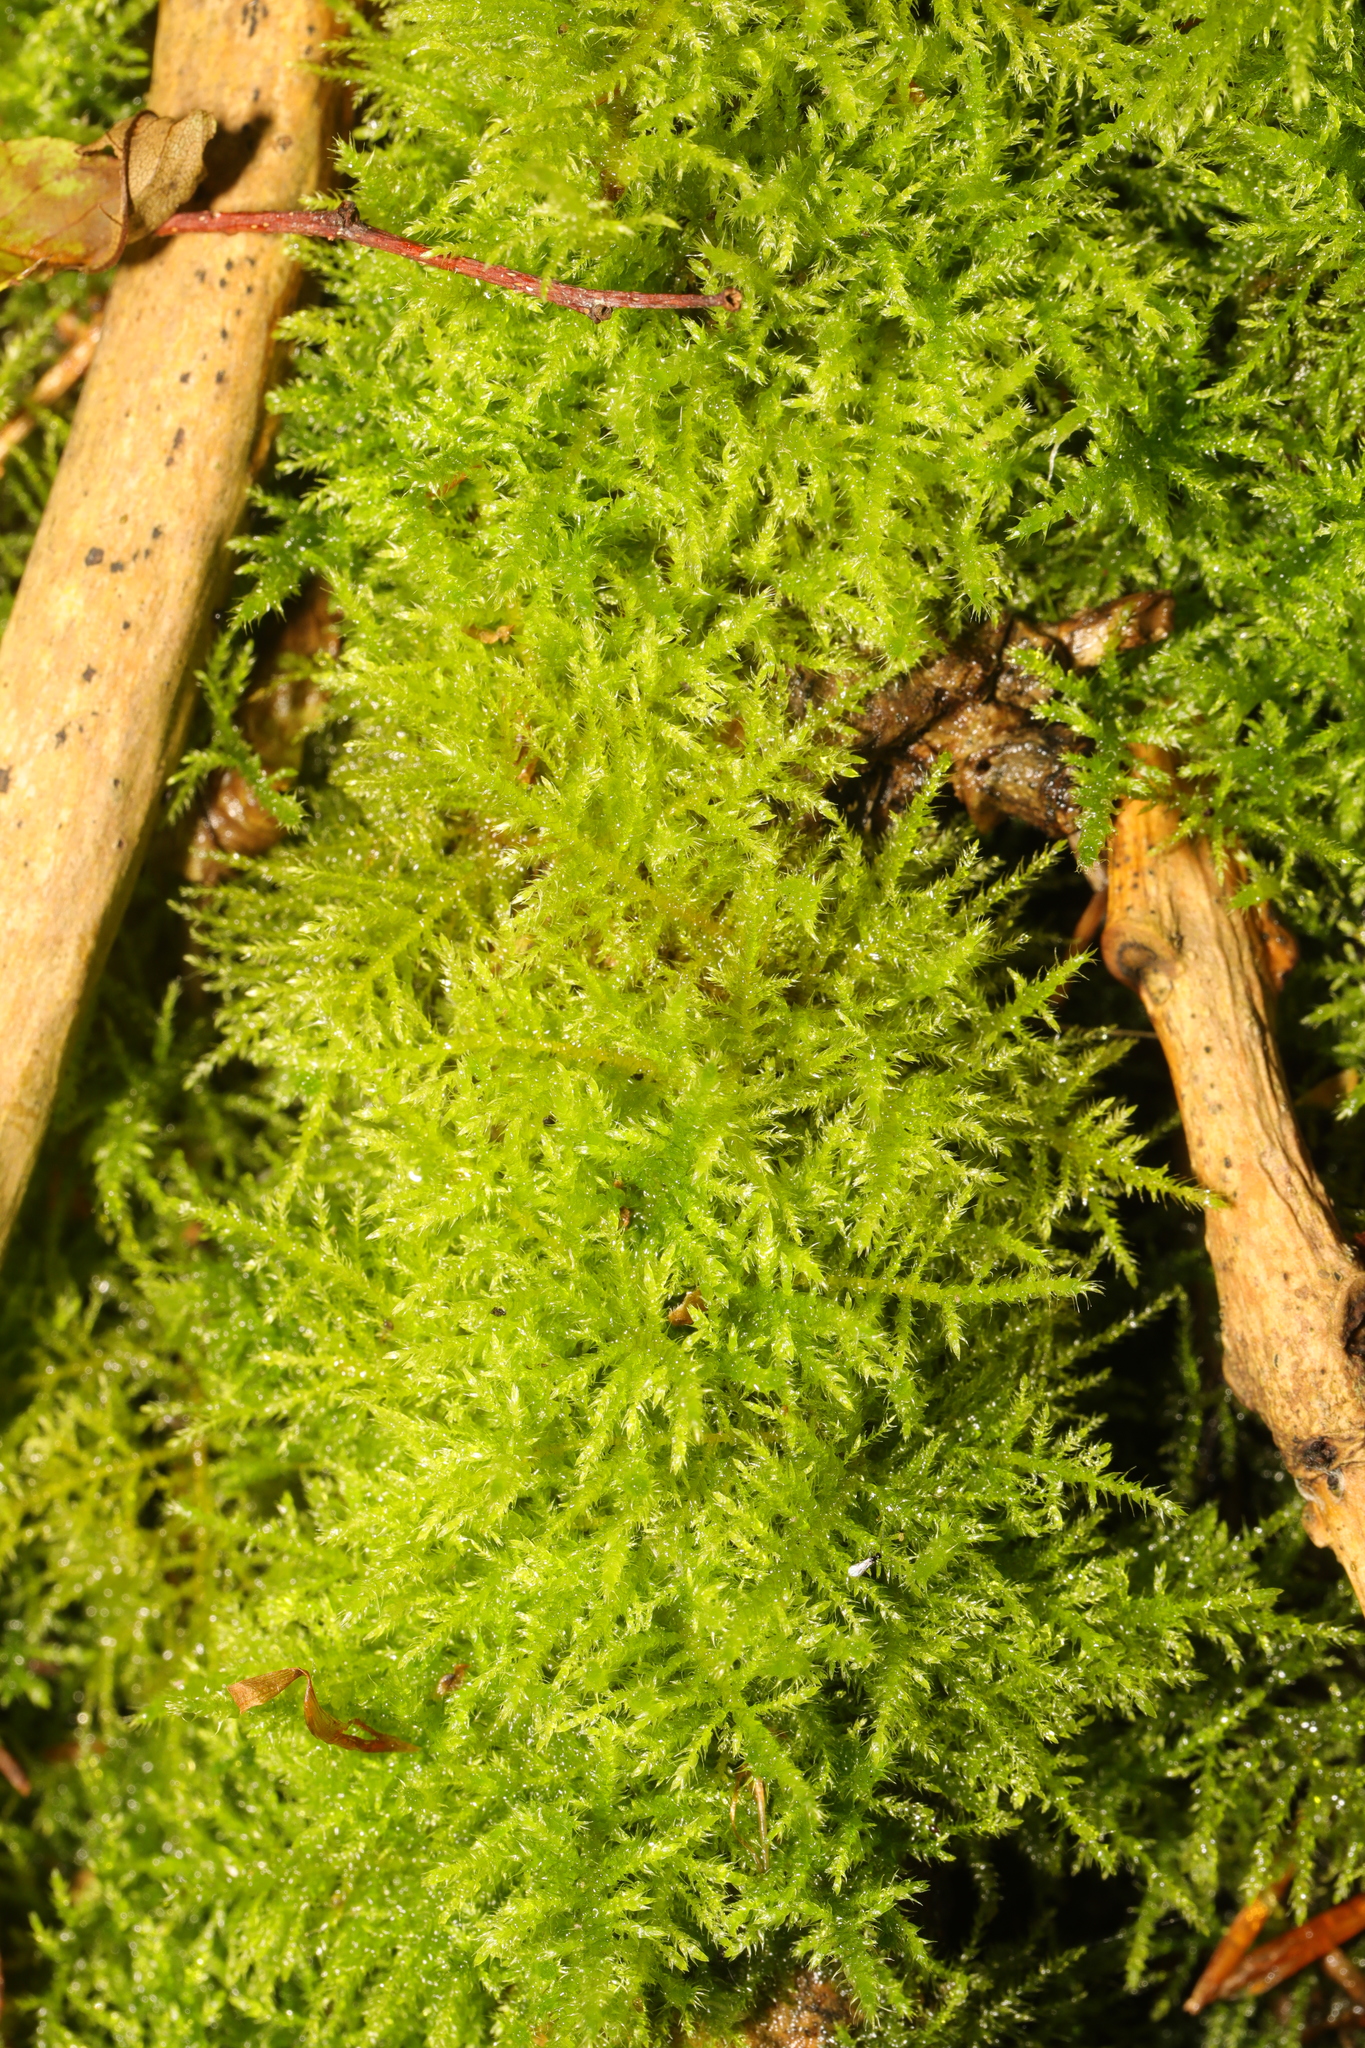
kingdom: Plantae
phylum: Bryophyta
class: Bryopsida
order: Hypnales
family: Brachytheciaceae
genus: Kindbergia
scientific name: Kindbergia praelonga
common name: Slender beaked moss
